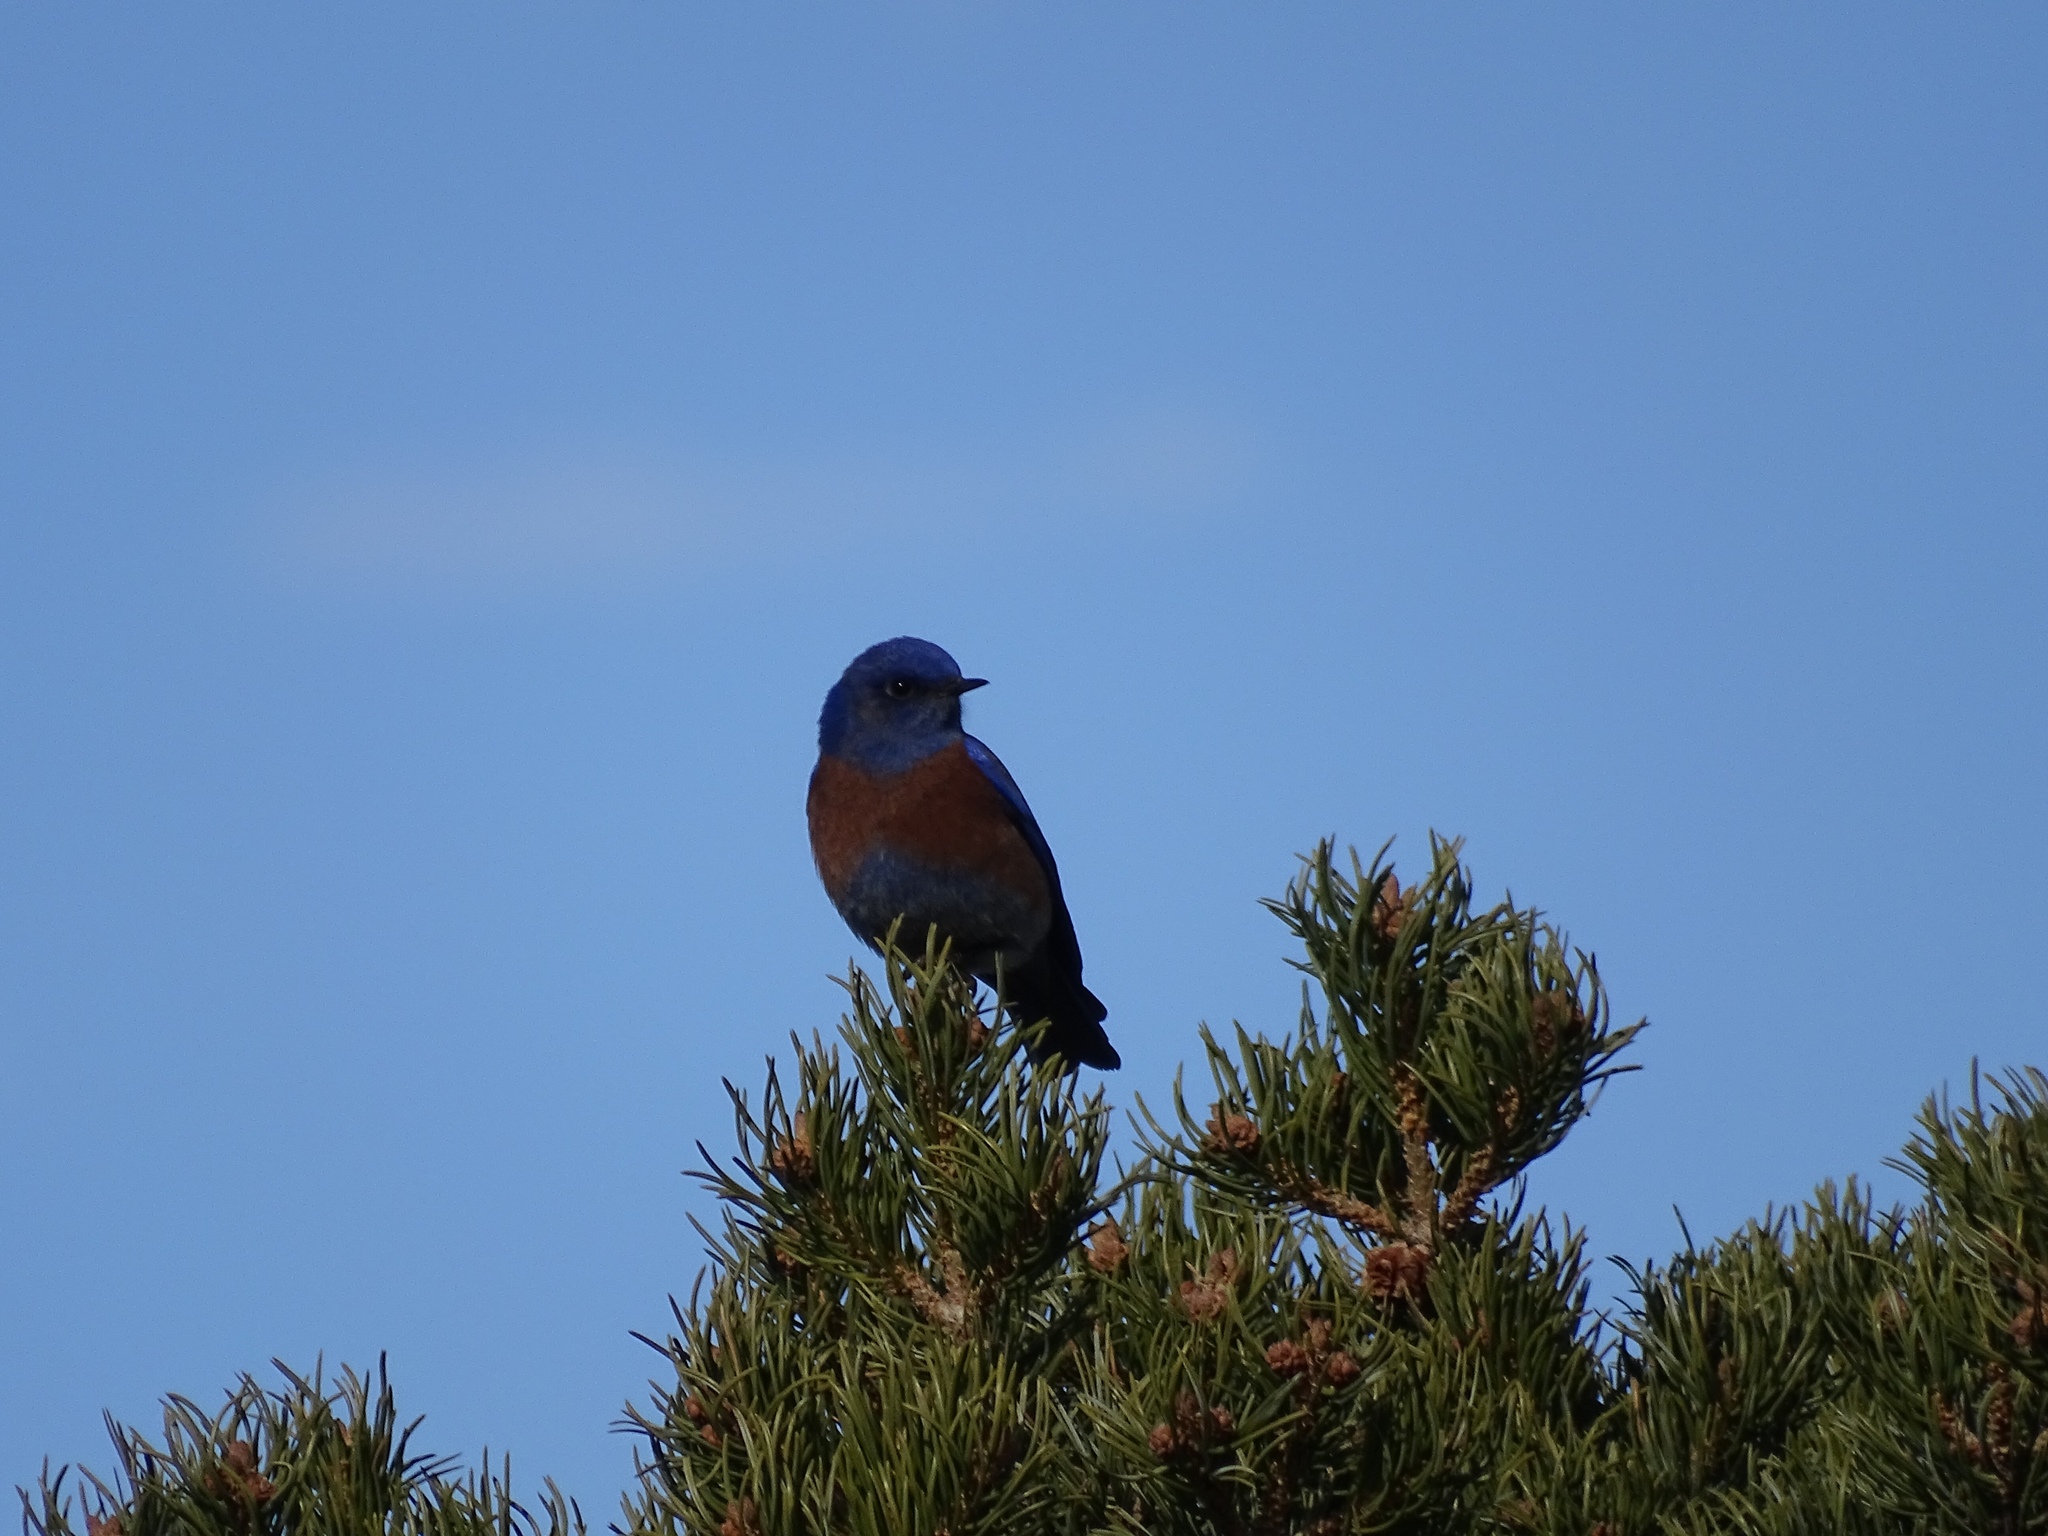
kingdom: Animalia
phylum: Chordata
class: Aves
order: Passeriformes
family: Turdidae
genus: Sialia
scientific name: Sialia mexicana
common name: Western bluebird
